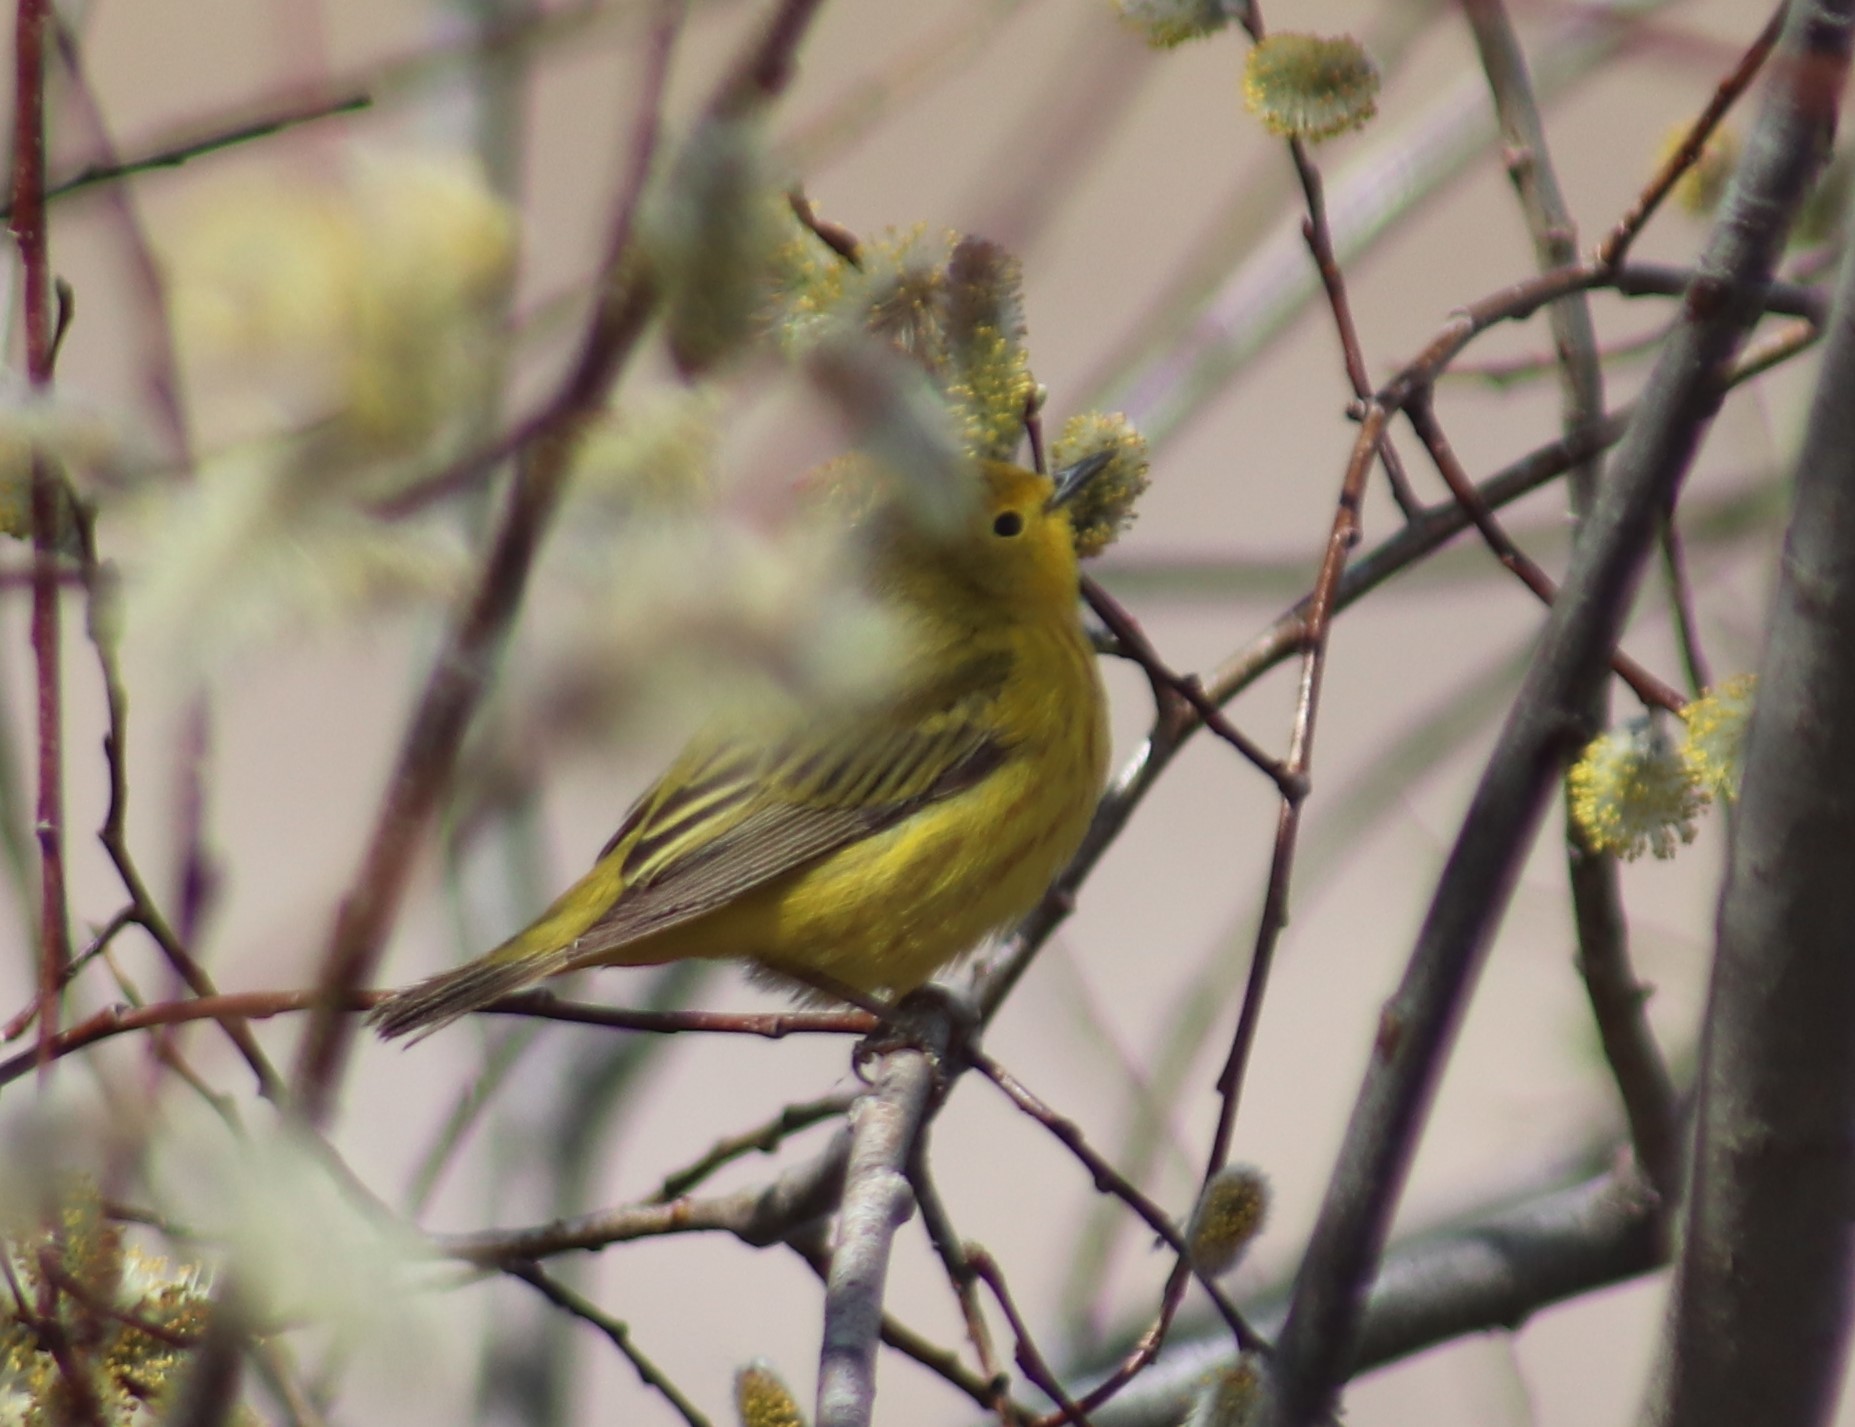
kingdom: Animalia
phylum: Chordata
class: Aves
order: Passeriformes
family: Parulidae
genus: Setophaga
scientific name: Setophaga petechia
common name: Yellow warbler
